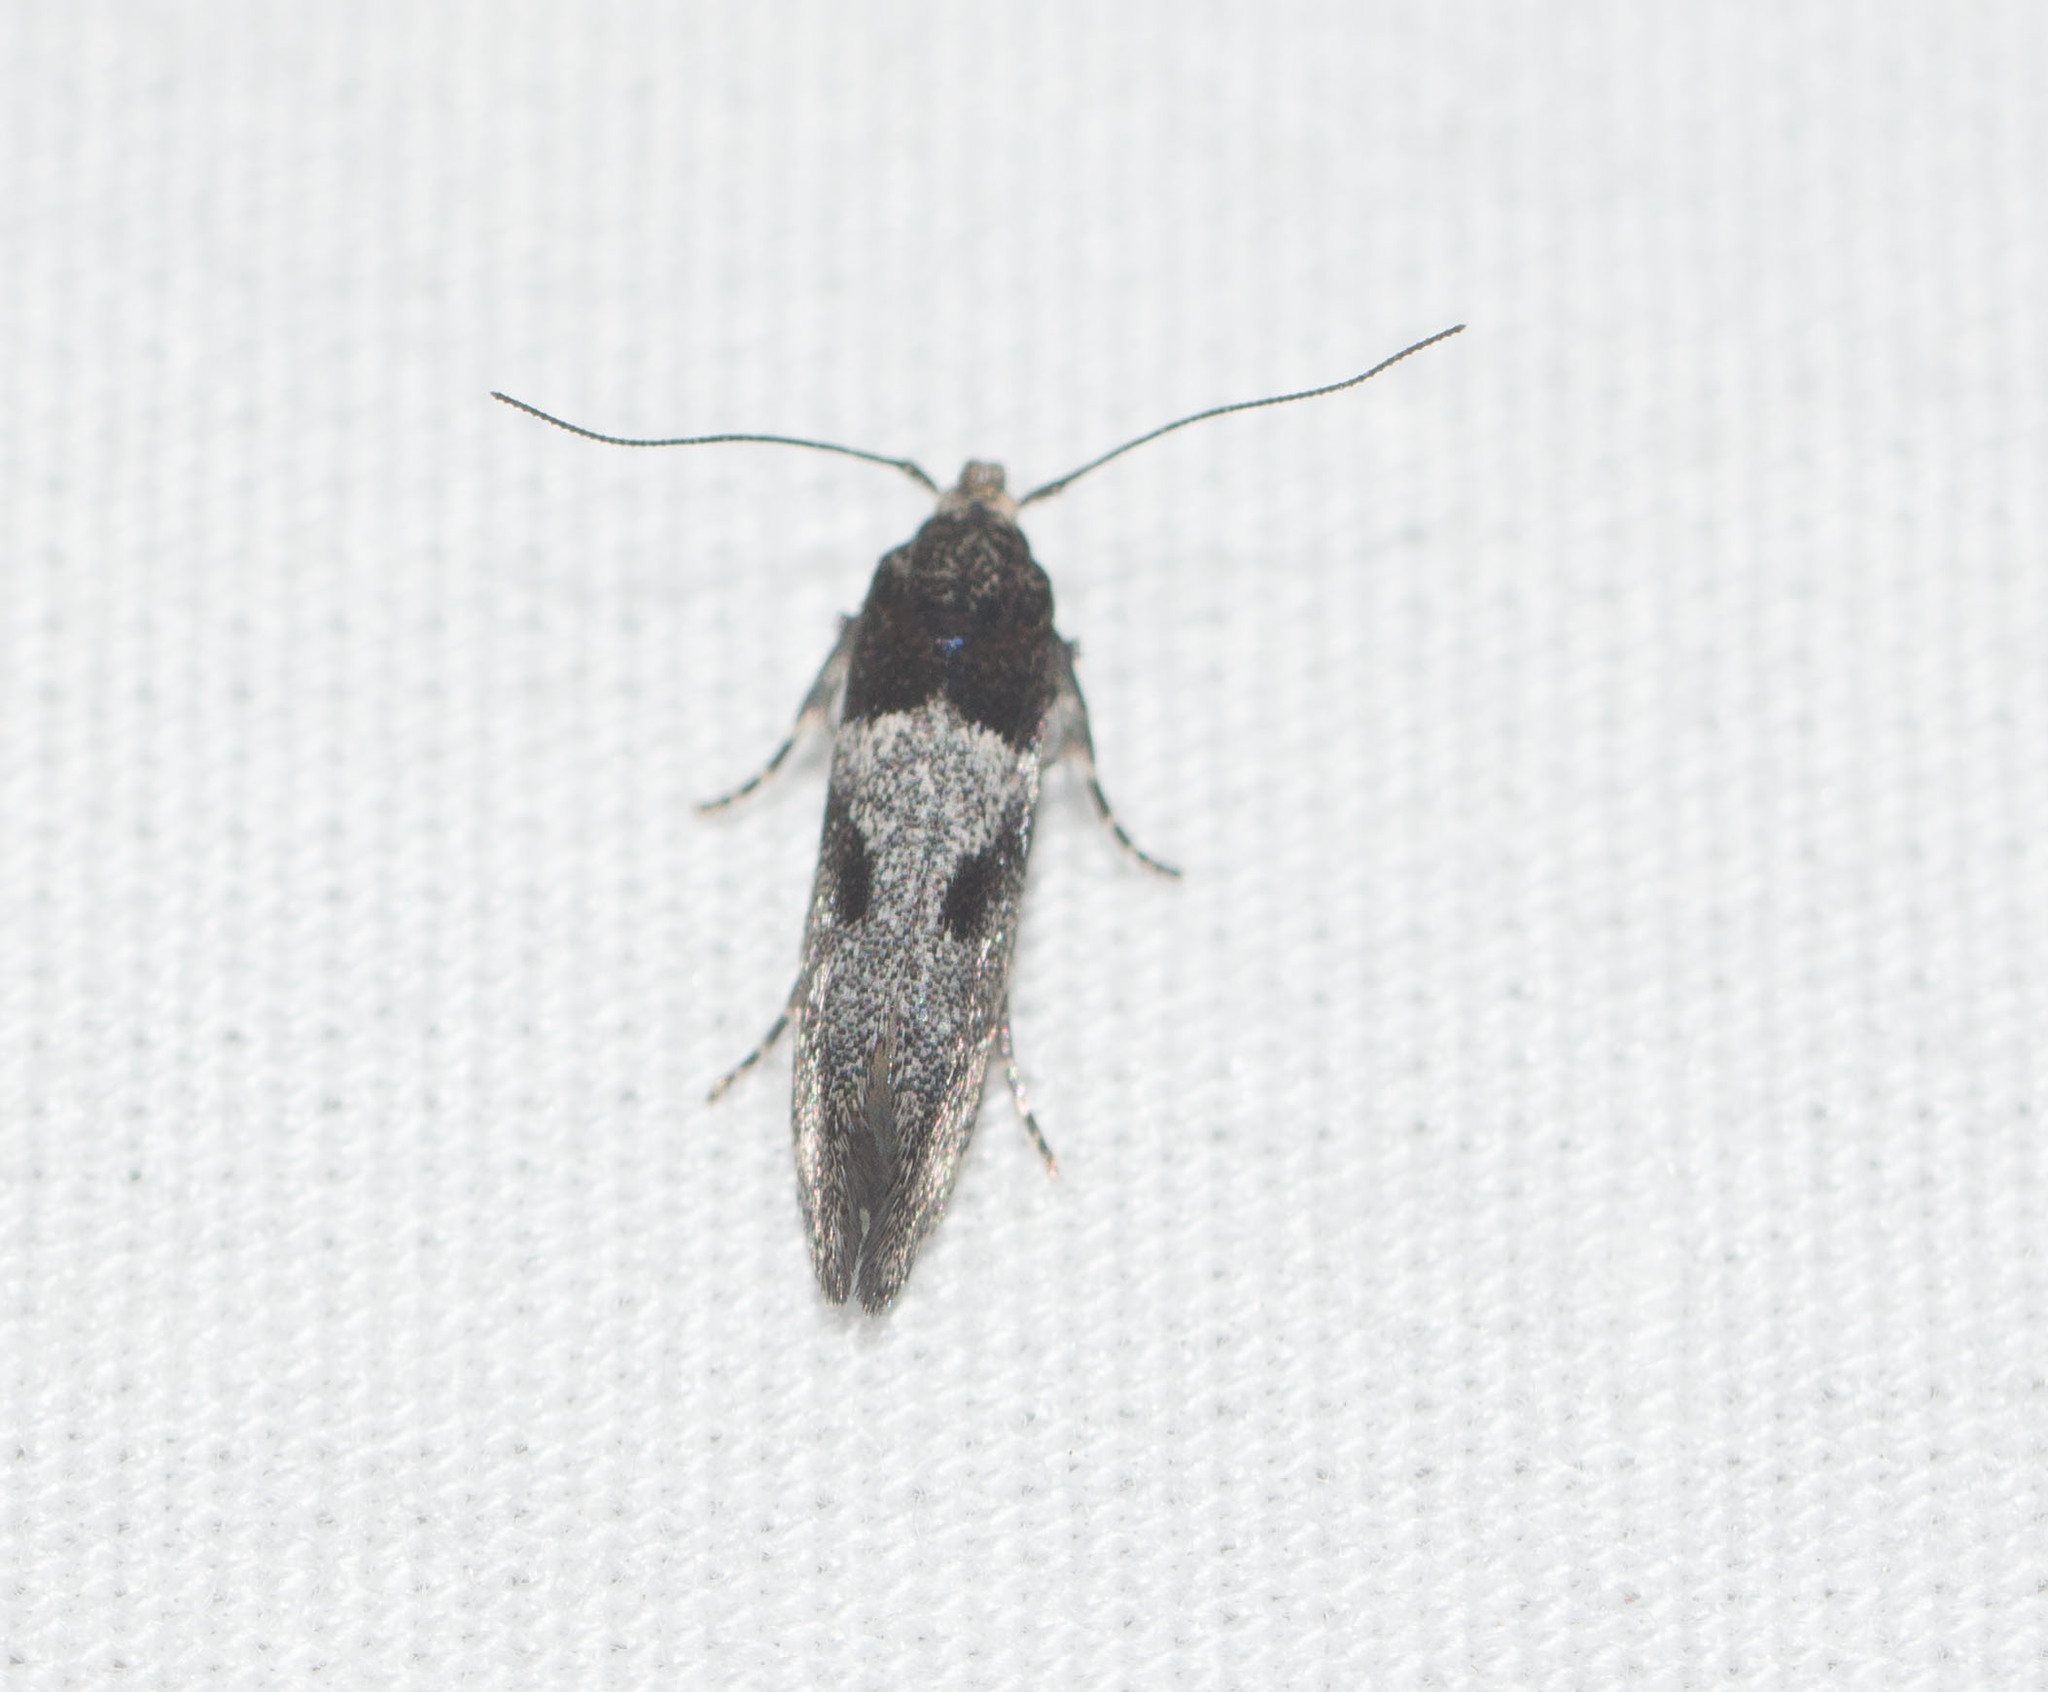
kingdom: Animalia
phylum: Arthropoda
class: Insecta
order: Lepidoptera
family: Cosmopterigidae
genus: Hyposmochoma
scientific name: Hyposmochoma vinicolor
